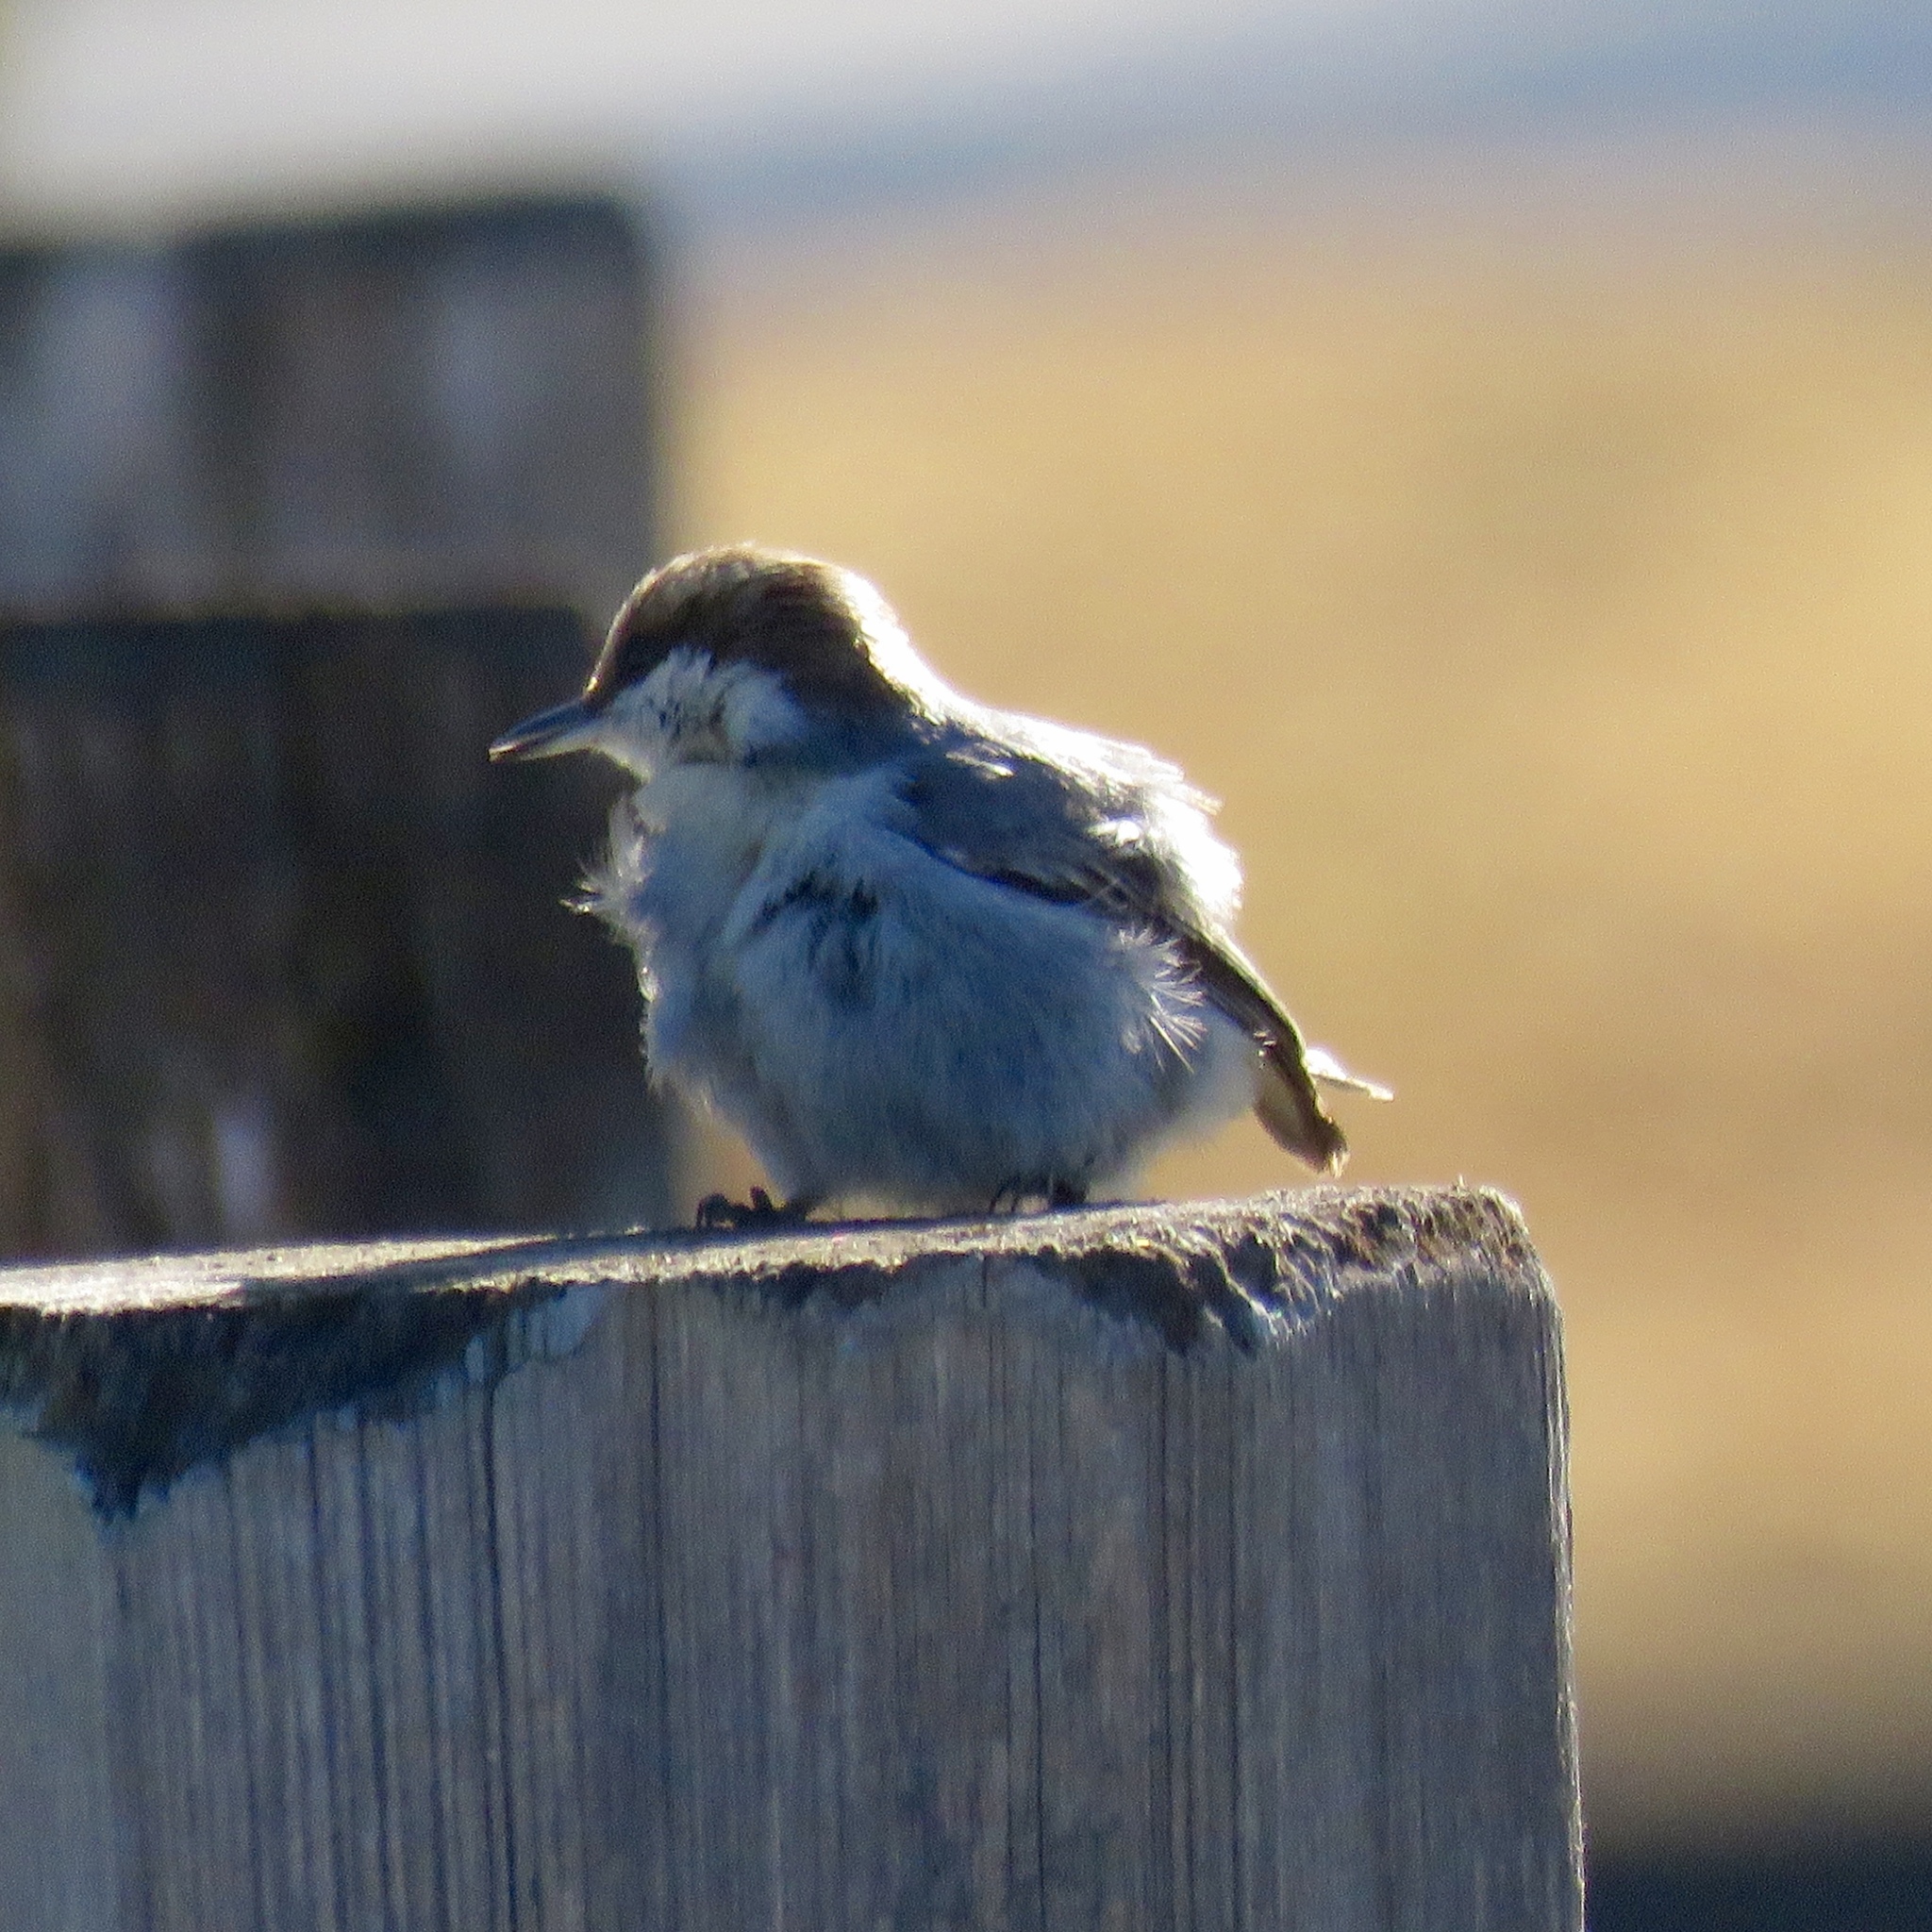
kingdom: Animalia
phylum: Chordata
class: Aves
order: Passeriformes
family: Sittidae
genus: Sitta
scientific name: Sitta pusilla
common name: Brown-headed nuthatch
